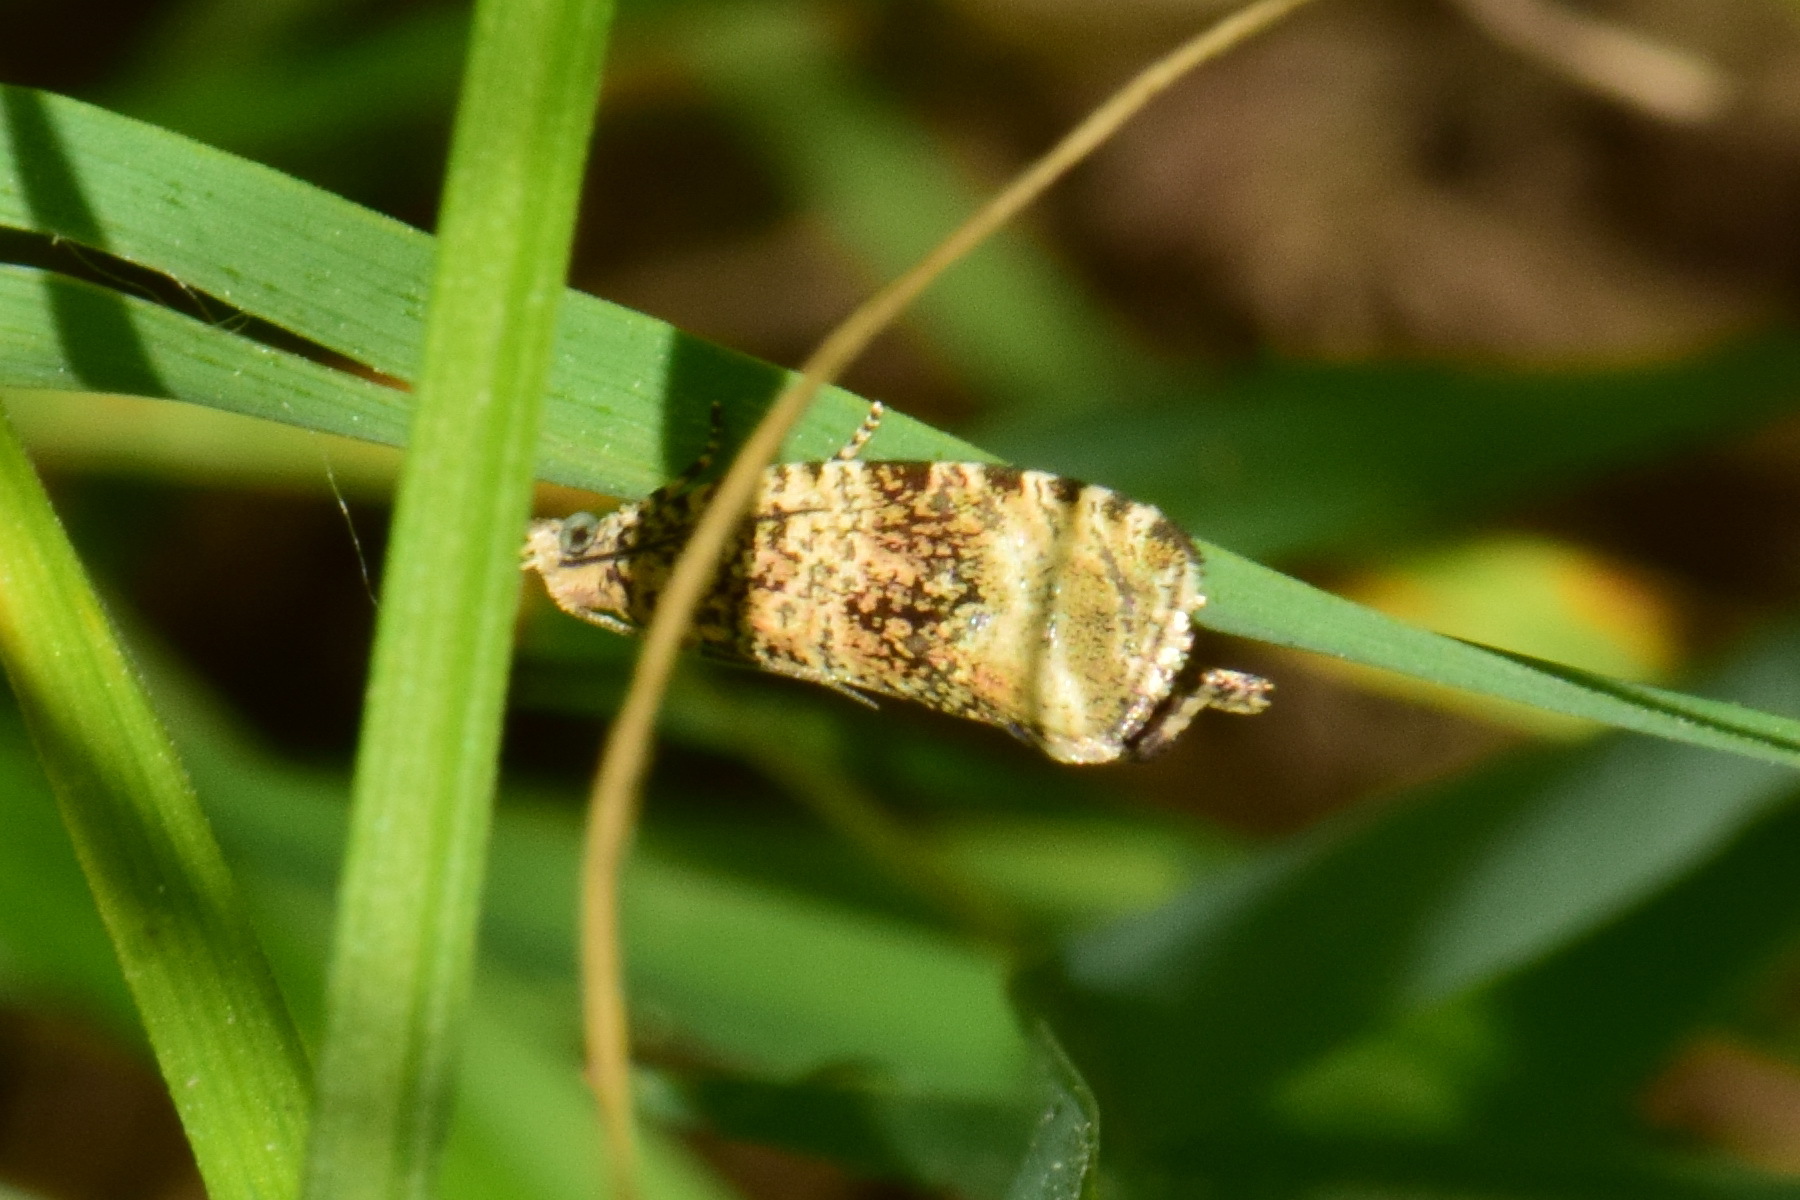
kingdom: Animalia
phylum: Arthropoda
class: Insecta
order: Lepidoptera
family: Tortricidae
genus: Syricoris
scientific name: Syricoris lacunana
